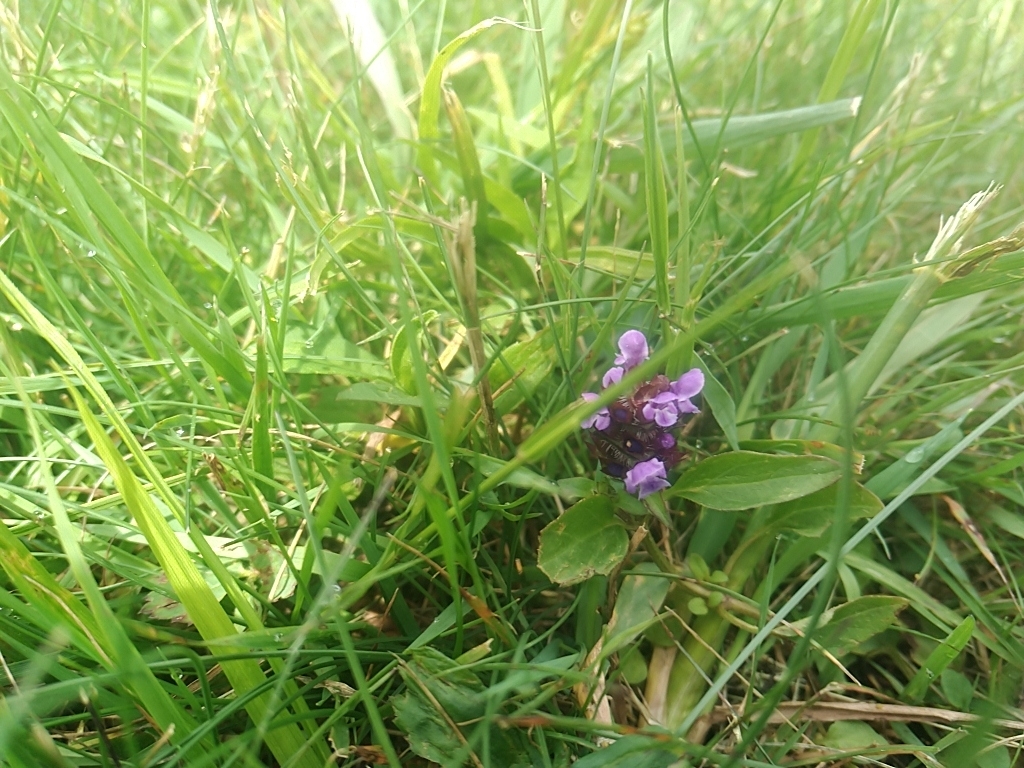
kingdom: Plantae
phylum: Tracheophyta
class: Magnoliopsida
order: Lamiales
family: Lamiaceae
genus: Prunella
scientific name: Prunella vulgaris
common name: Heal-all
